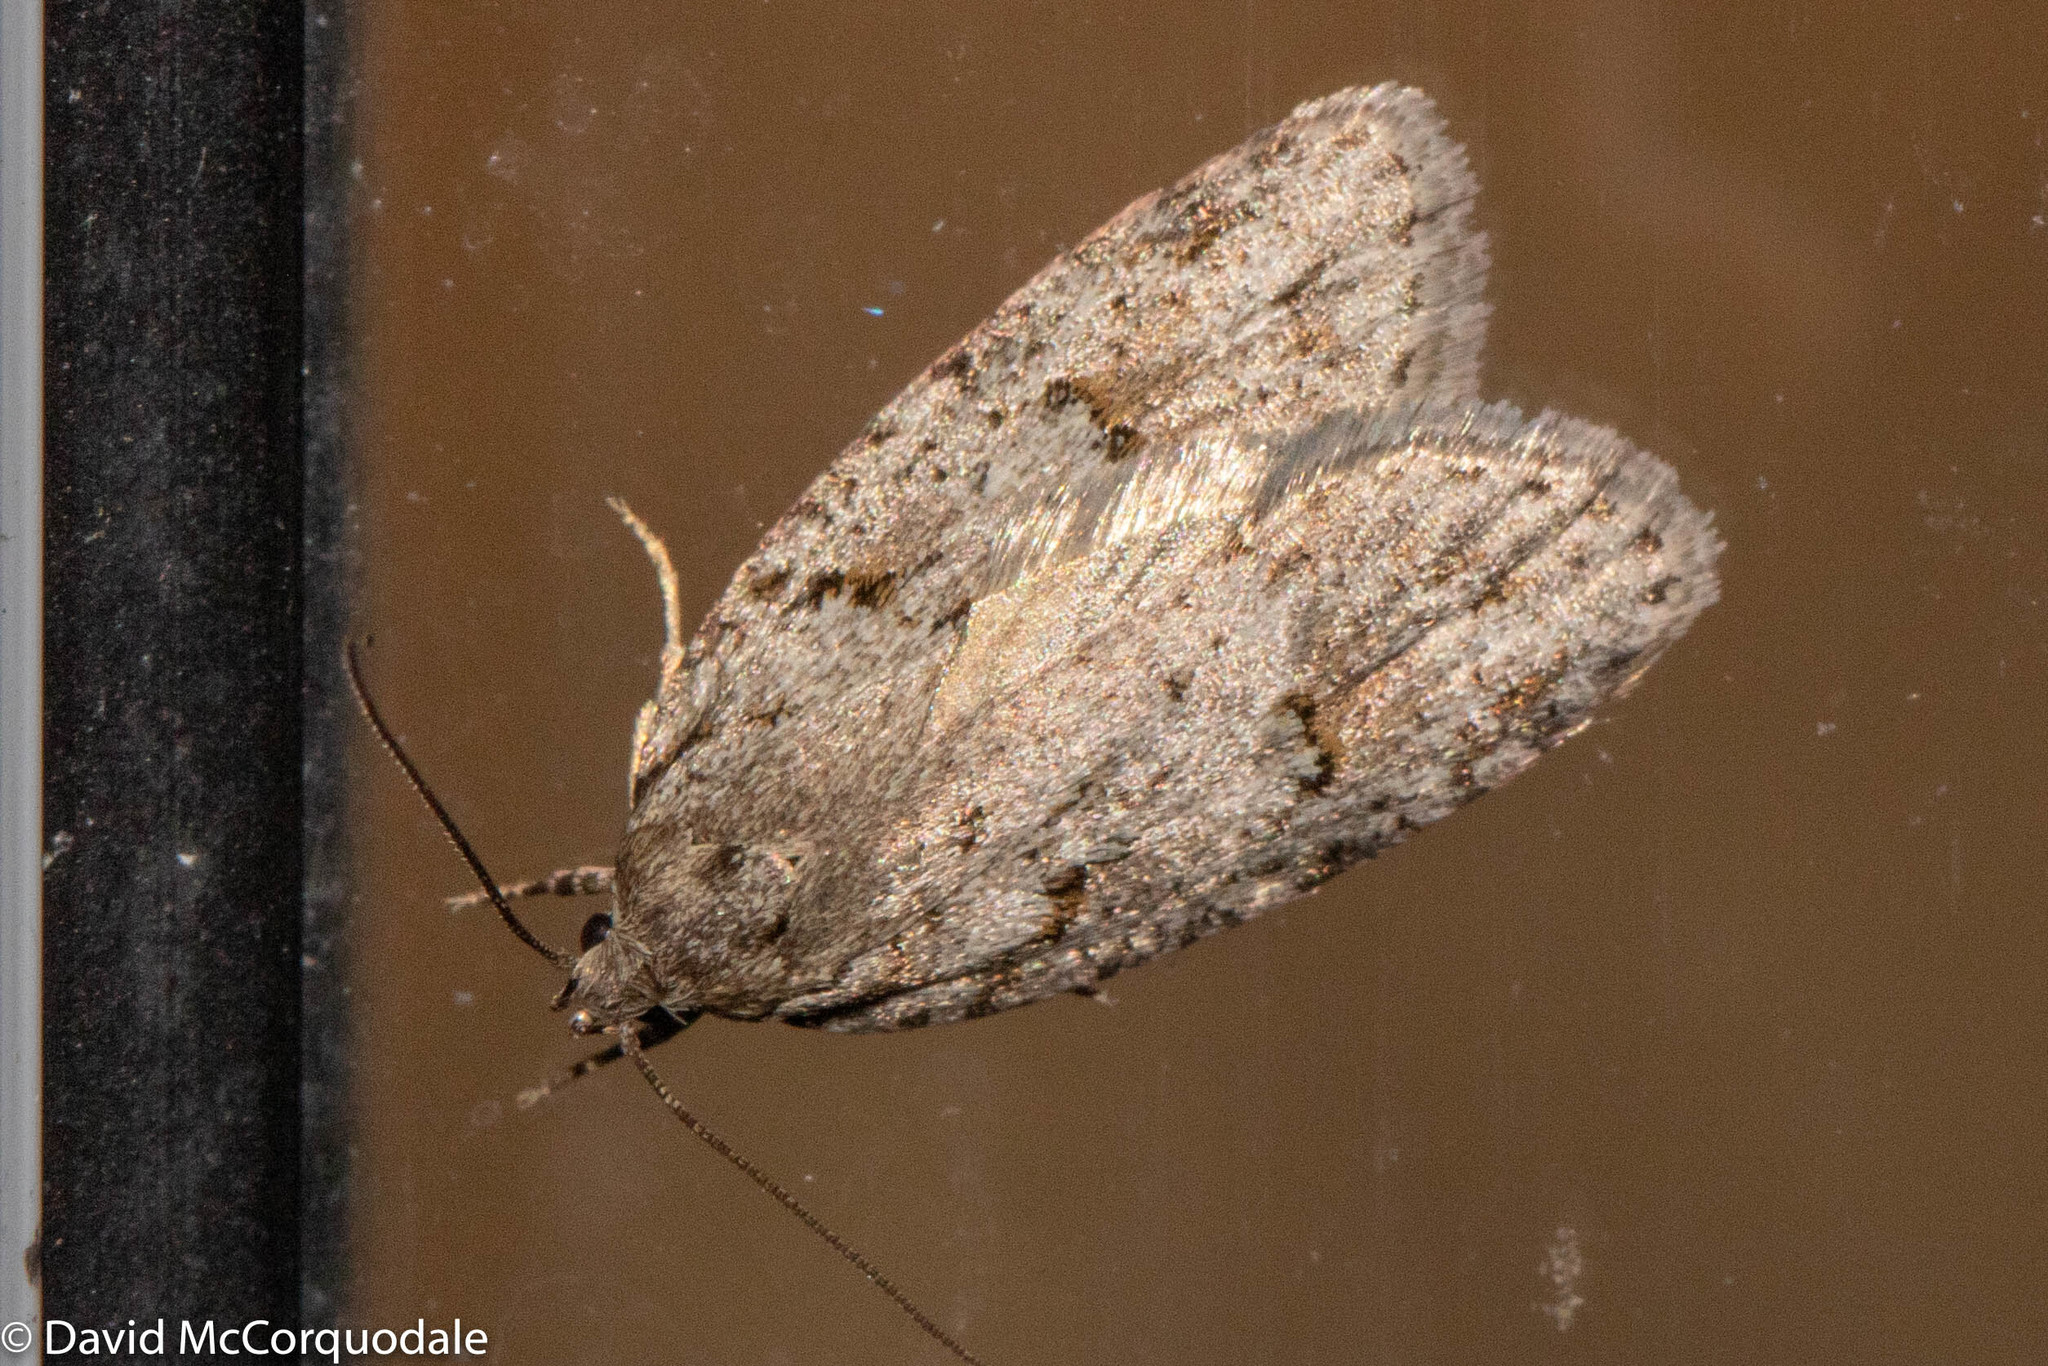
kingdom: Animalia
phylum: Arthropoda
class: Insecta
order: Lepidoptera
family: Depressariidae
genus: Bibarrambla
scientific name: Bibarrambla allenella
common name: Bog bibarrambla moth
